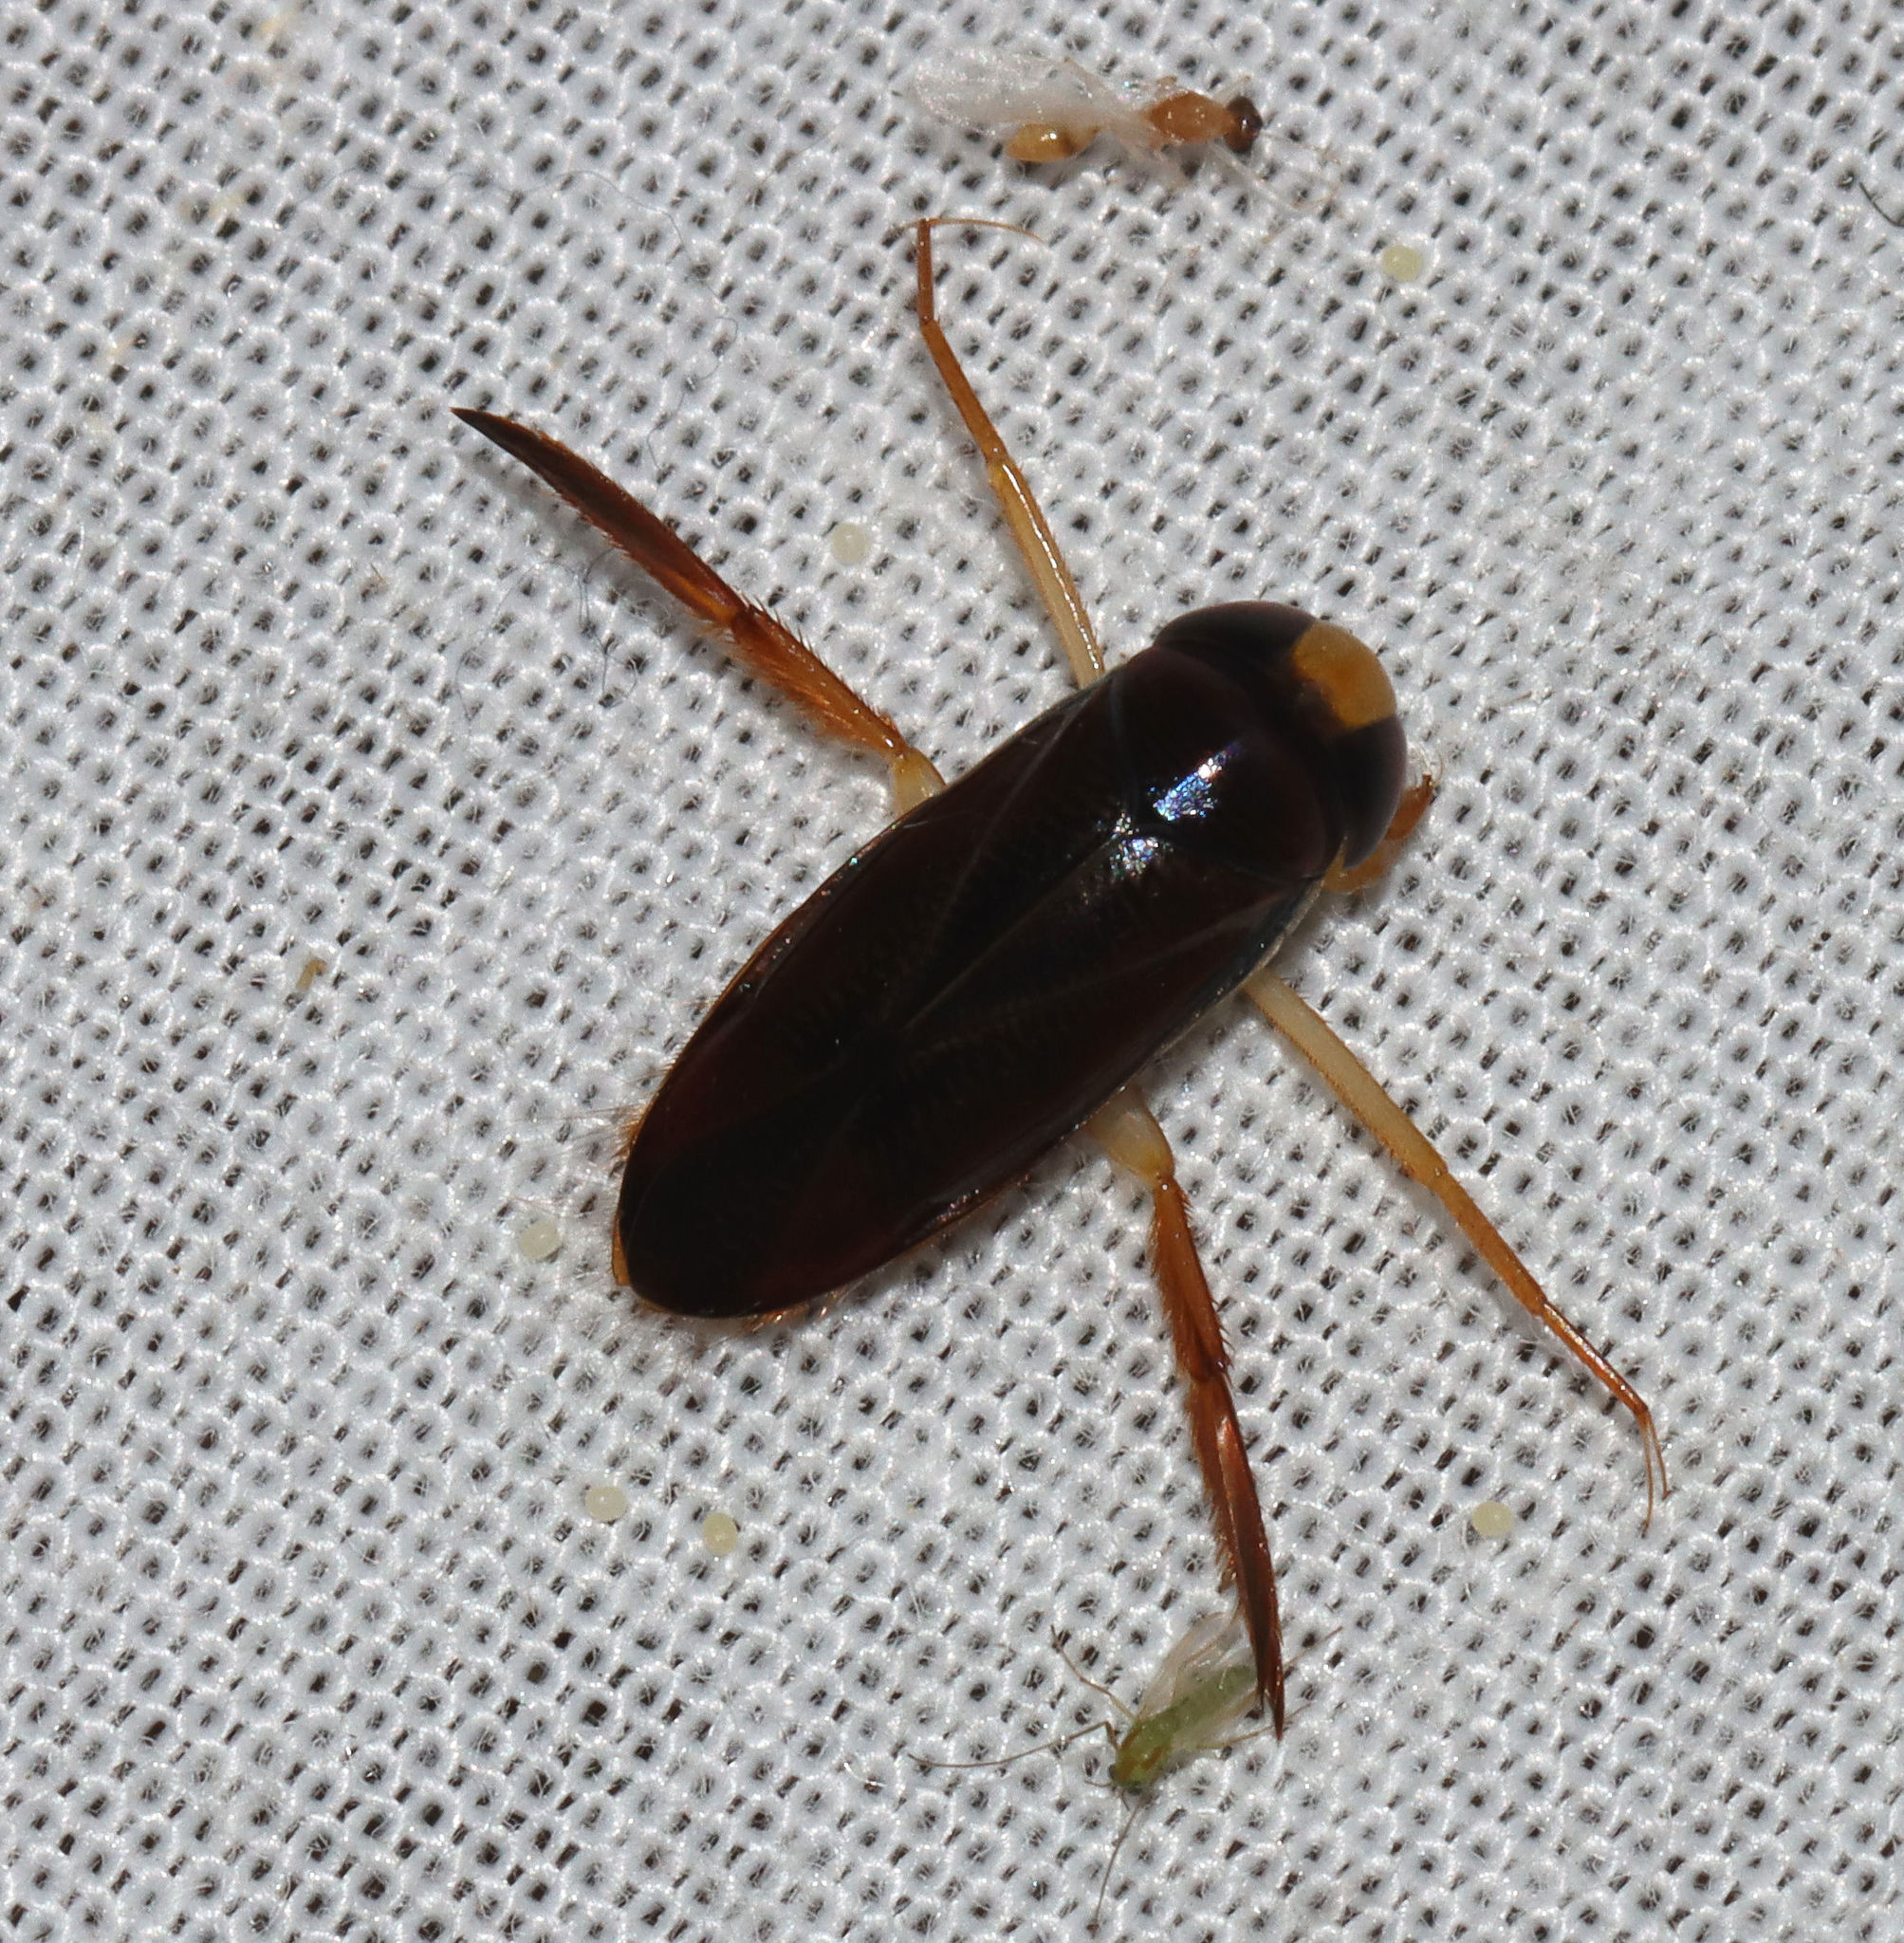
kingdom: Animalia
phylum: Arthropoda
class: Insecta
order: Hemiptera
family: Corixidae
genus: Hesperocorixa
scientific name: Hesperocorixa lucida
